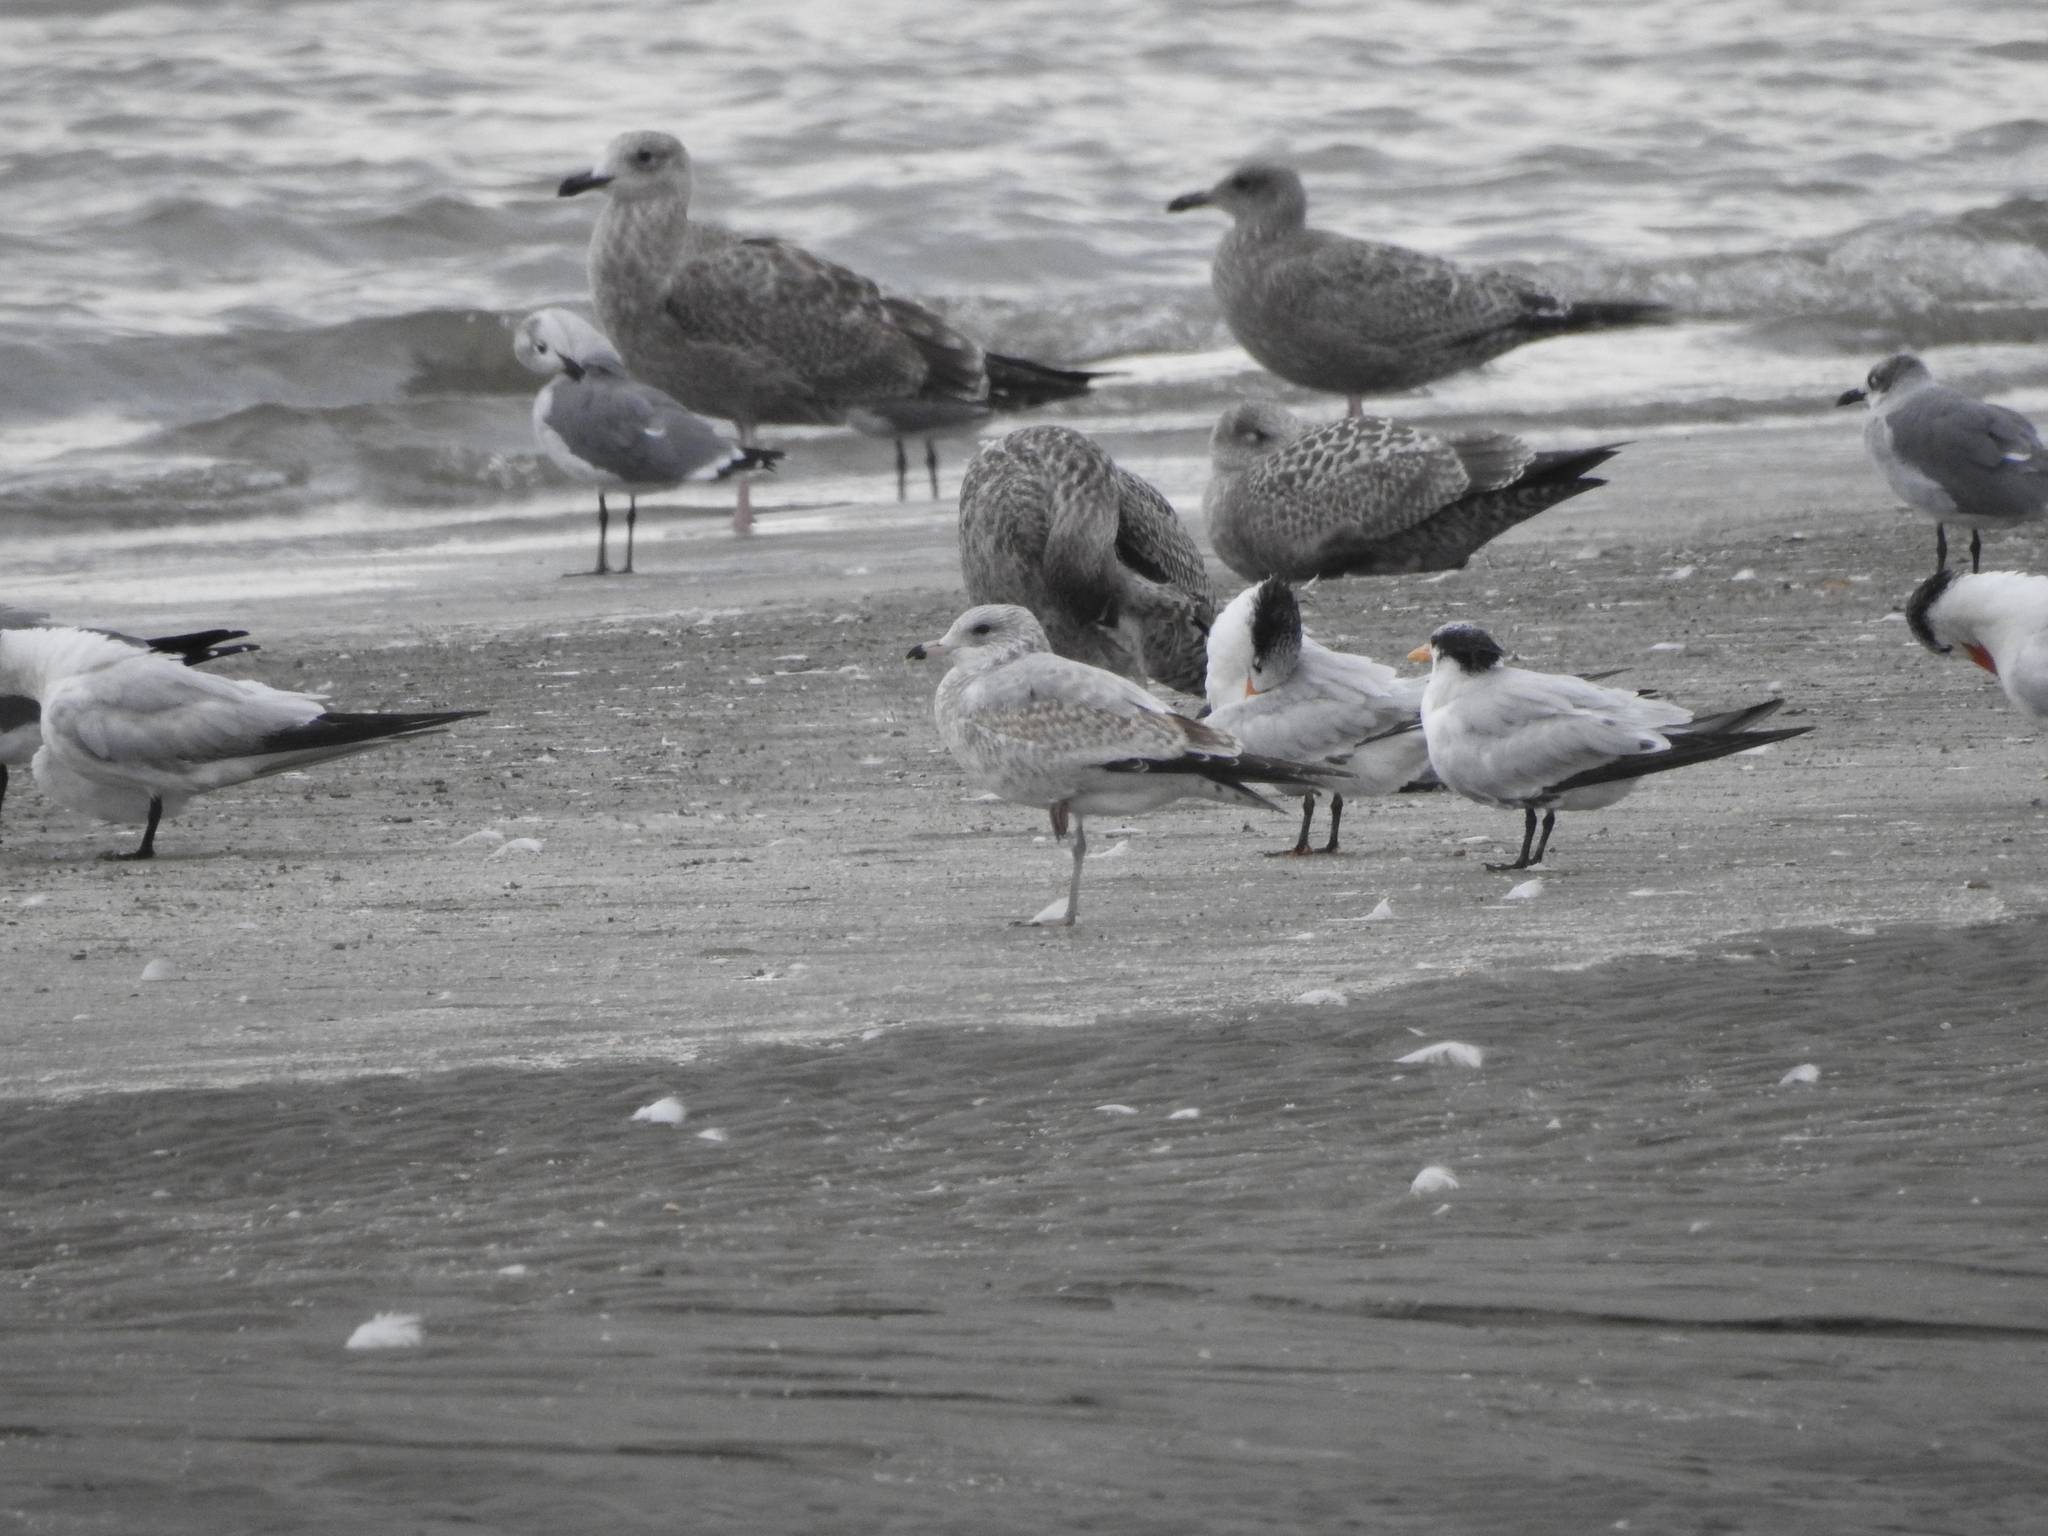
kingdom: Animalia
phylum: Chordata
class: Aves
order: Charadriiformes
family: Laridae
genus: Larus
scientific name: Larus delawarensis
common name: Ring-billed gull
